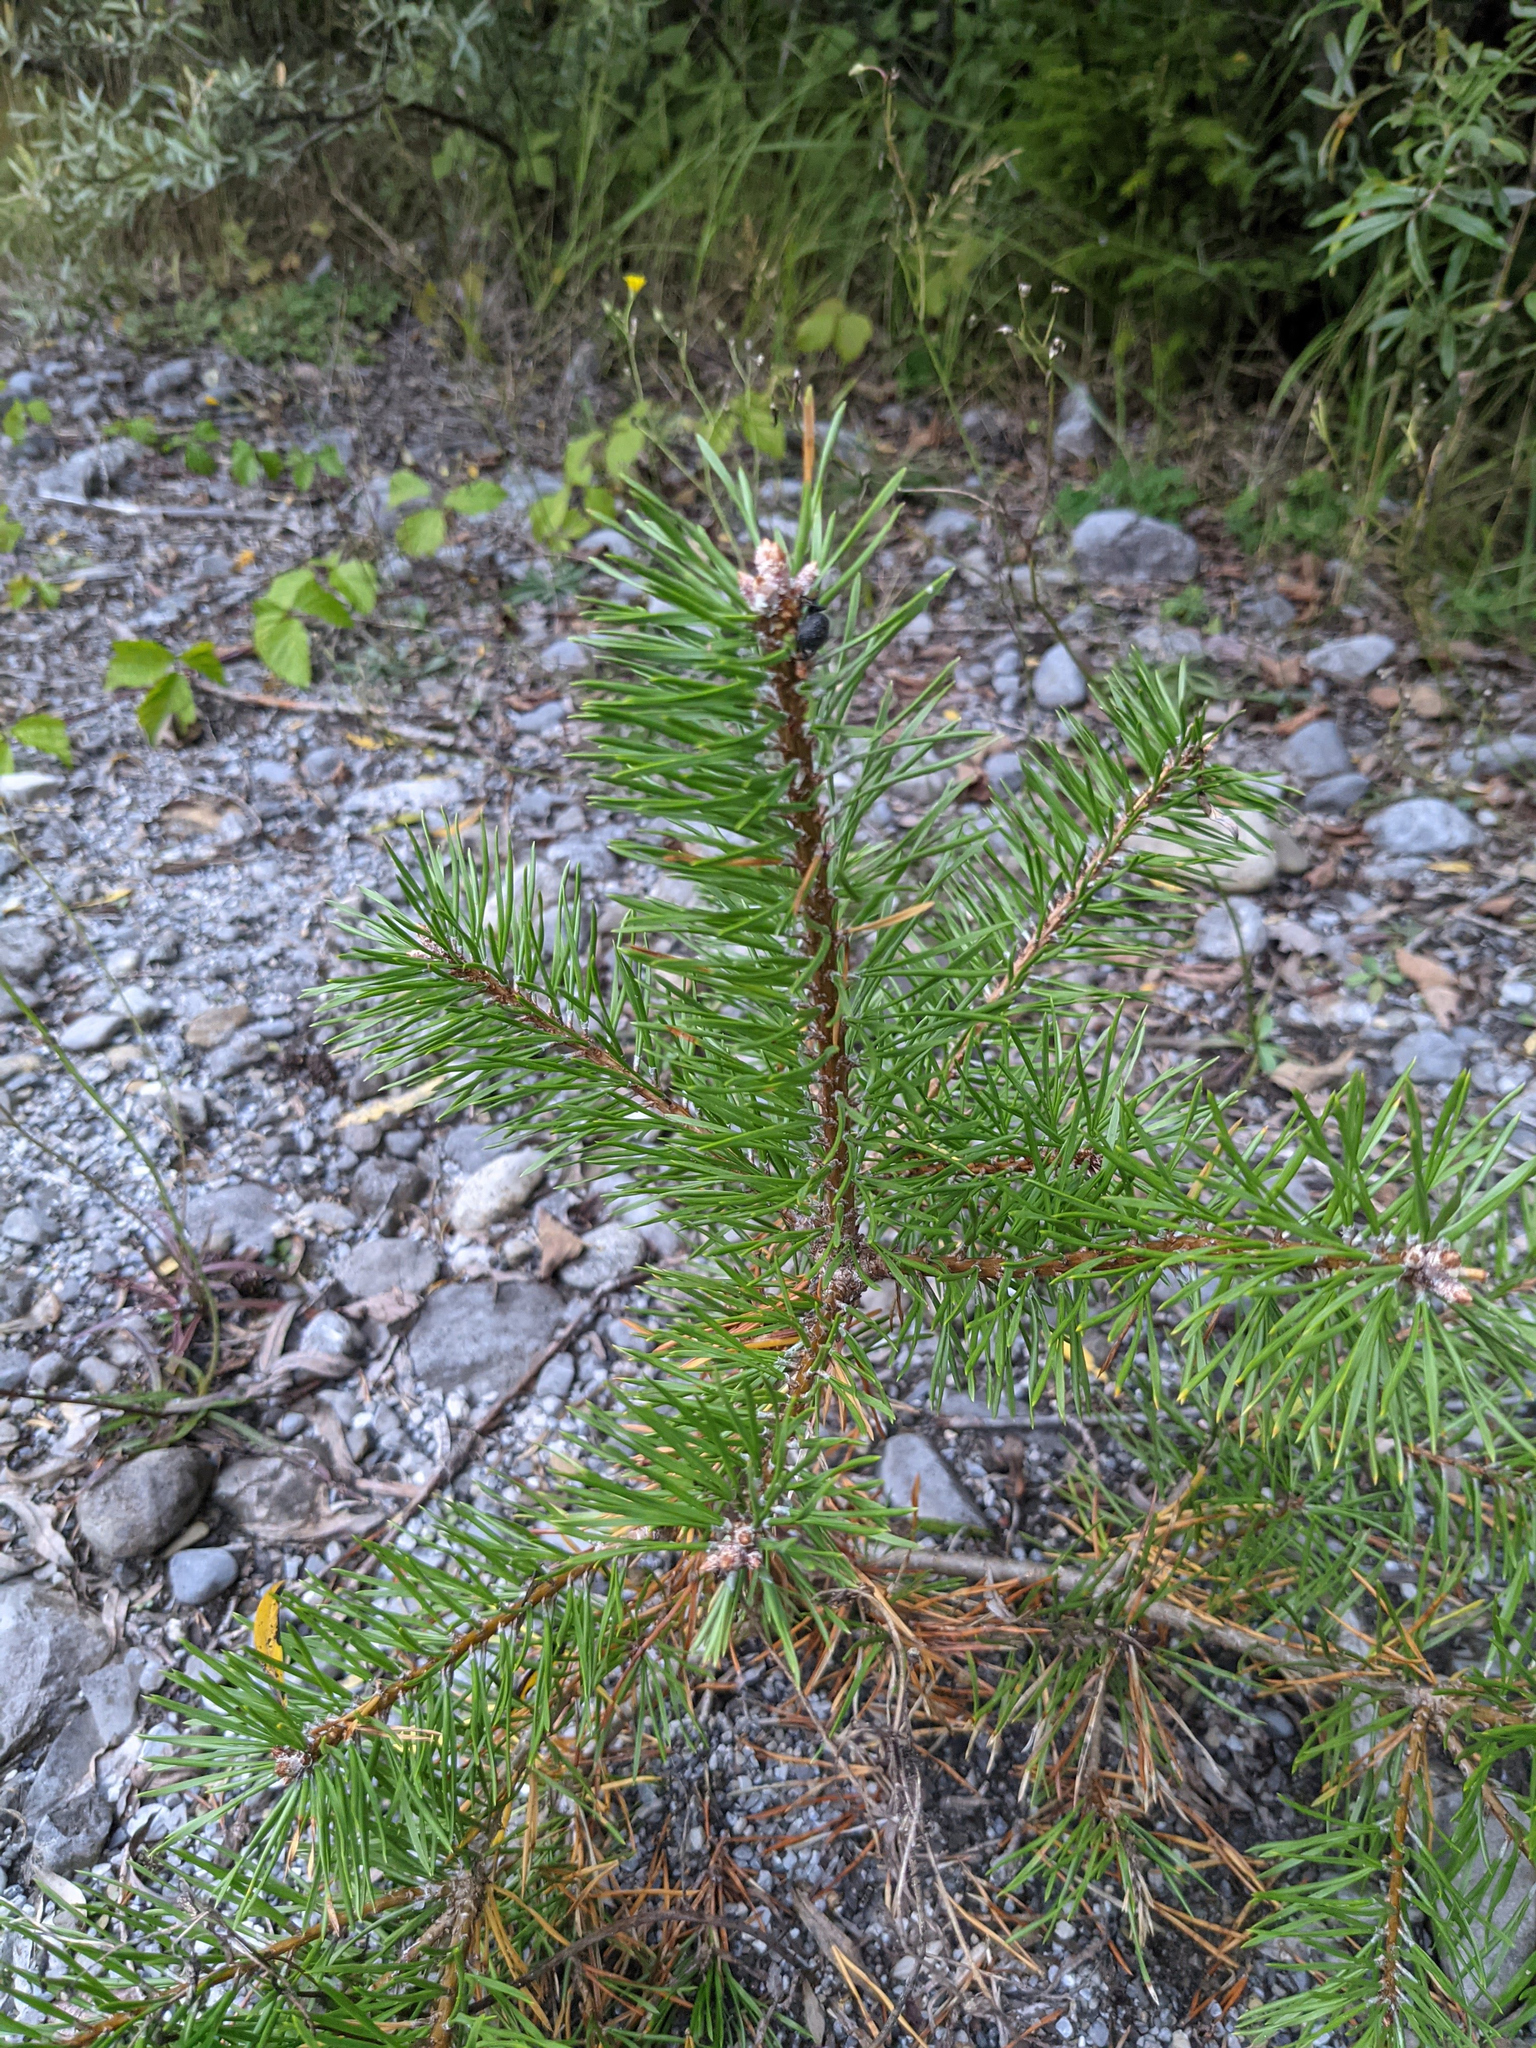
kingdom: Plantae
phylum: Tracheophyta
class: Pinopsida
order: Pinales
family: Pinaceae
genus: Pinus
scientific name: Pinus sylvestris
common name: Scots pine
